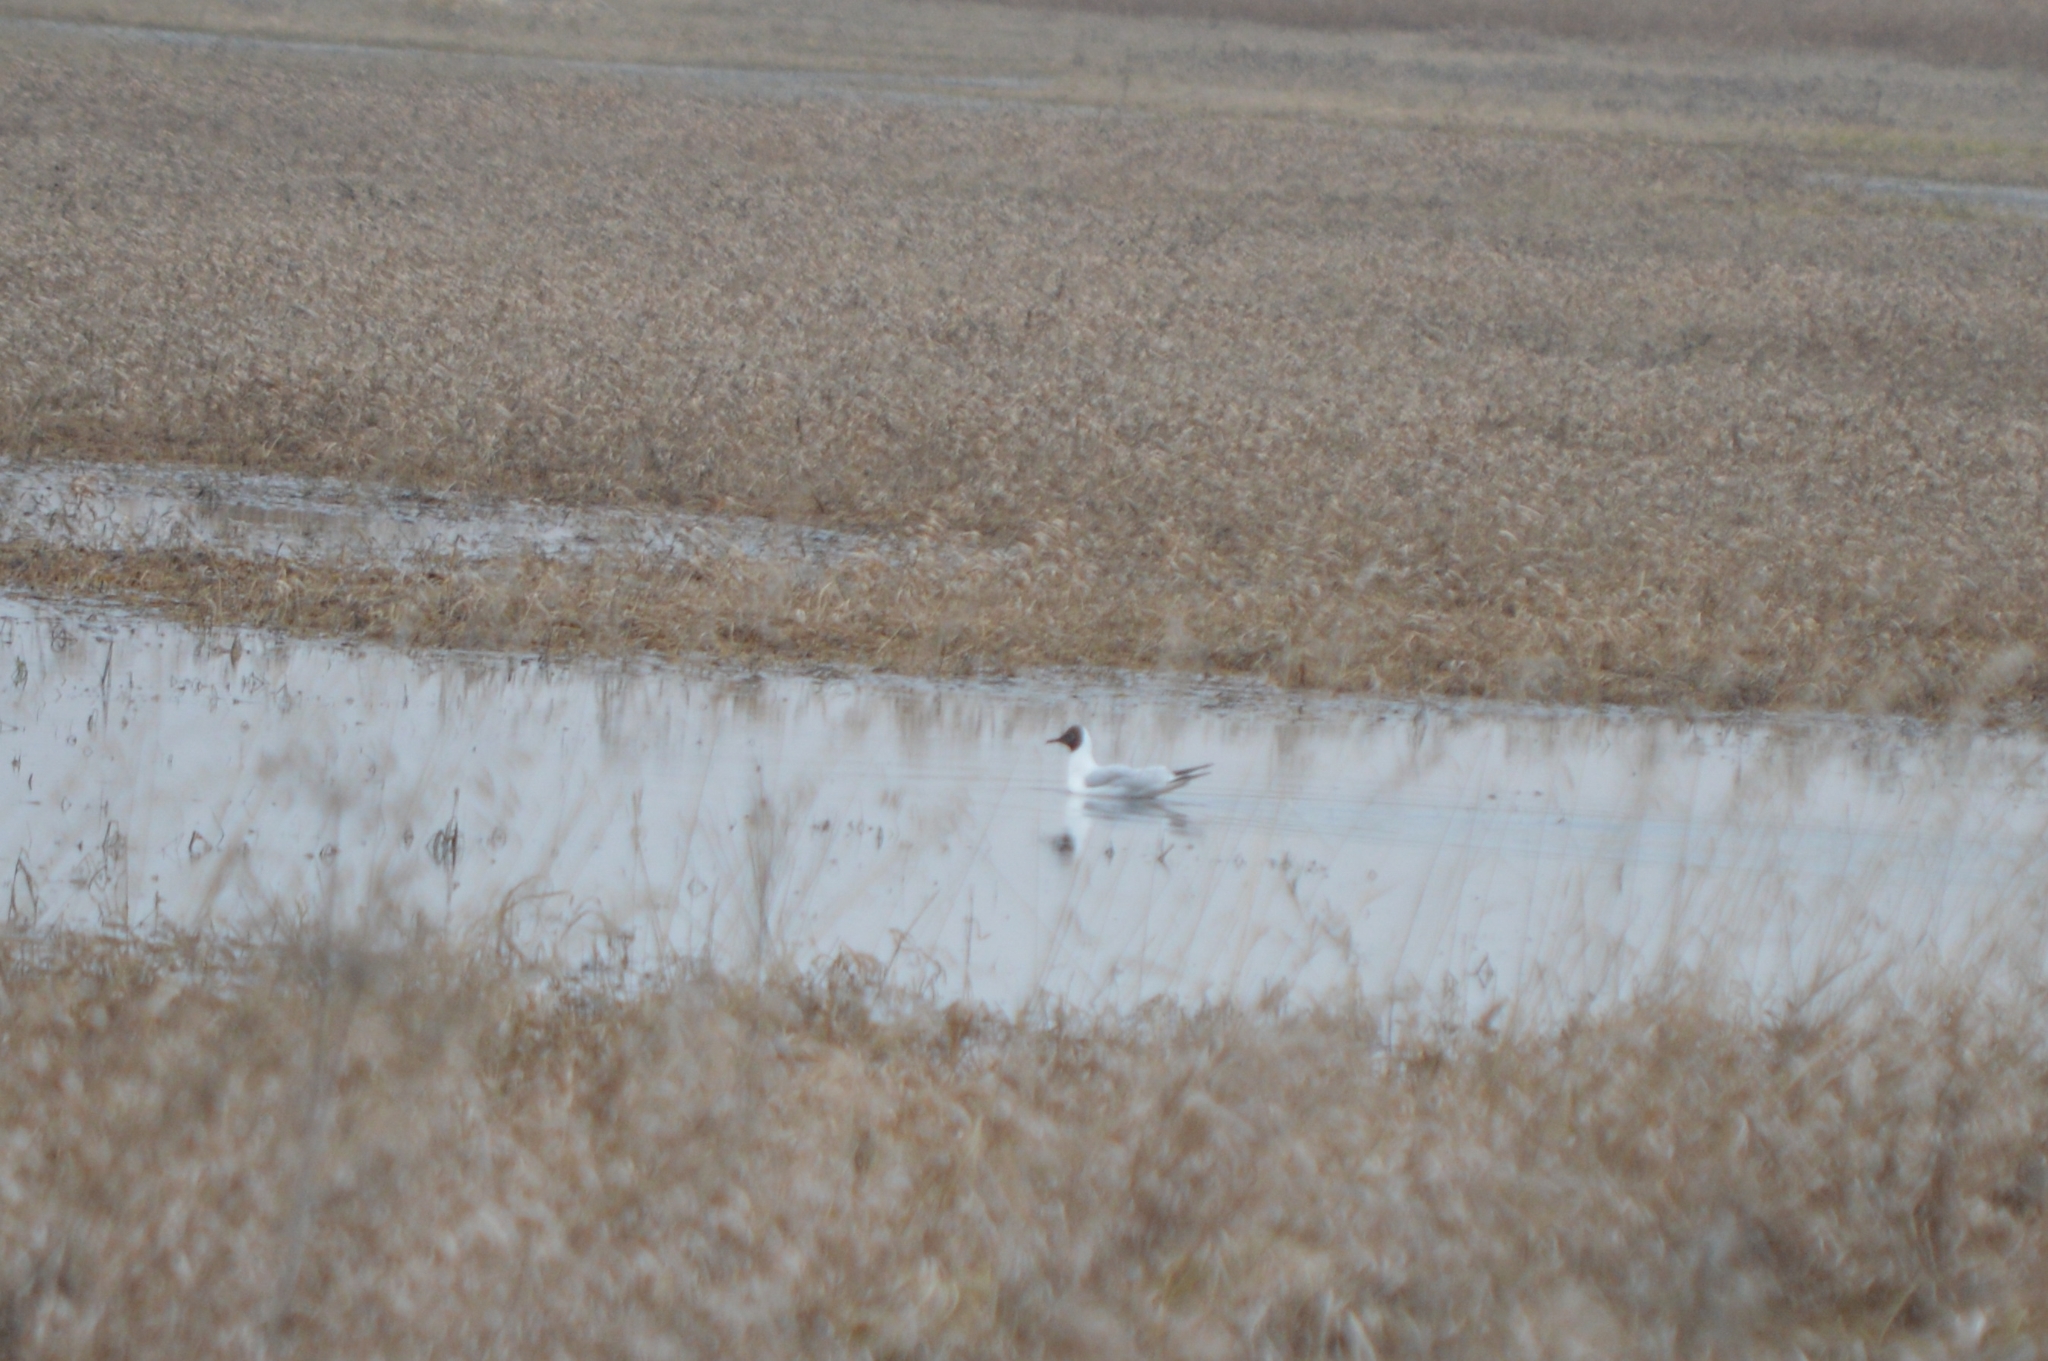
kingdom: Animalia
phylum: Chordata
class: Aves
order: Charadriiformes
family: Laridae
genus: Chroicocephalus
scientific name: Chroicocephalus ridibundus
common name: Black-headed gull
